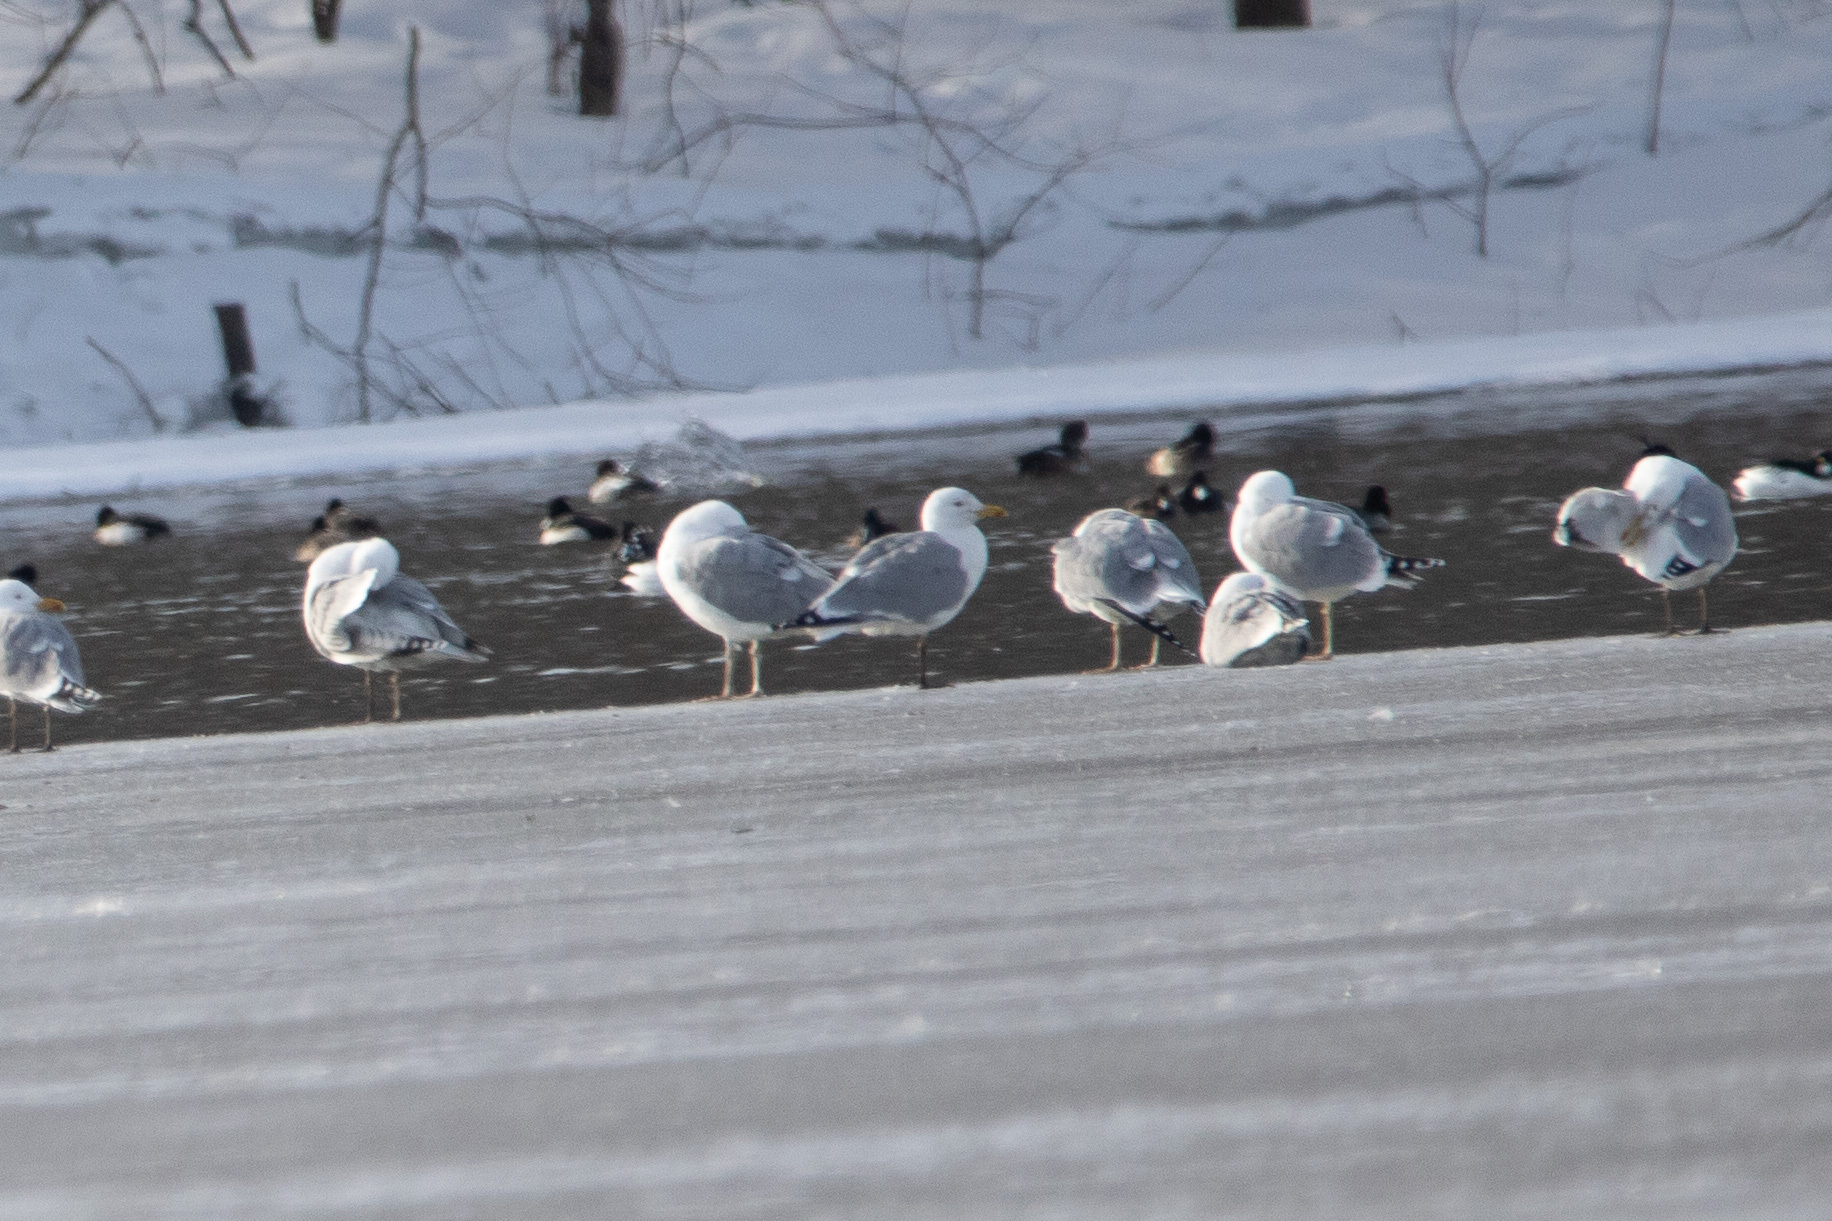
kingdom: Animalia
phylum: Chordata
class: Aves
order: Charadriiformes
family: Laridae
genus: Larus
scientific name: Larus argentatus
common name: Herring gull
